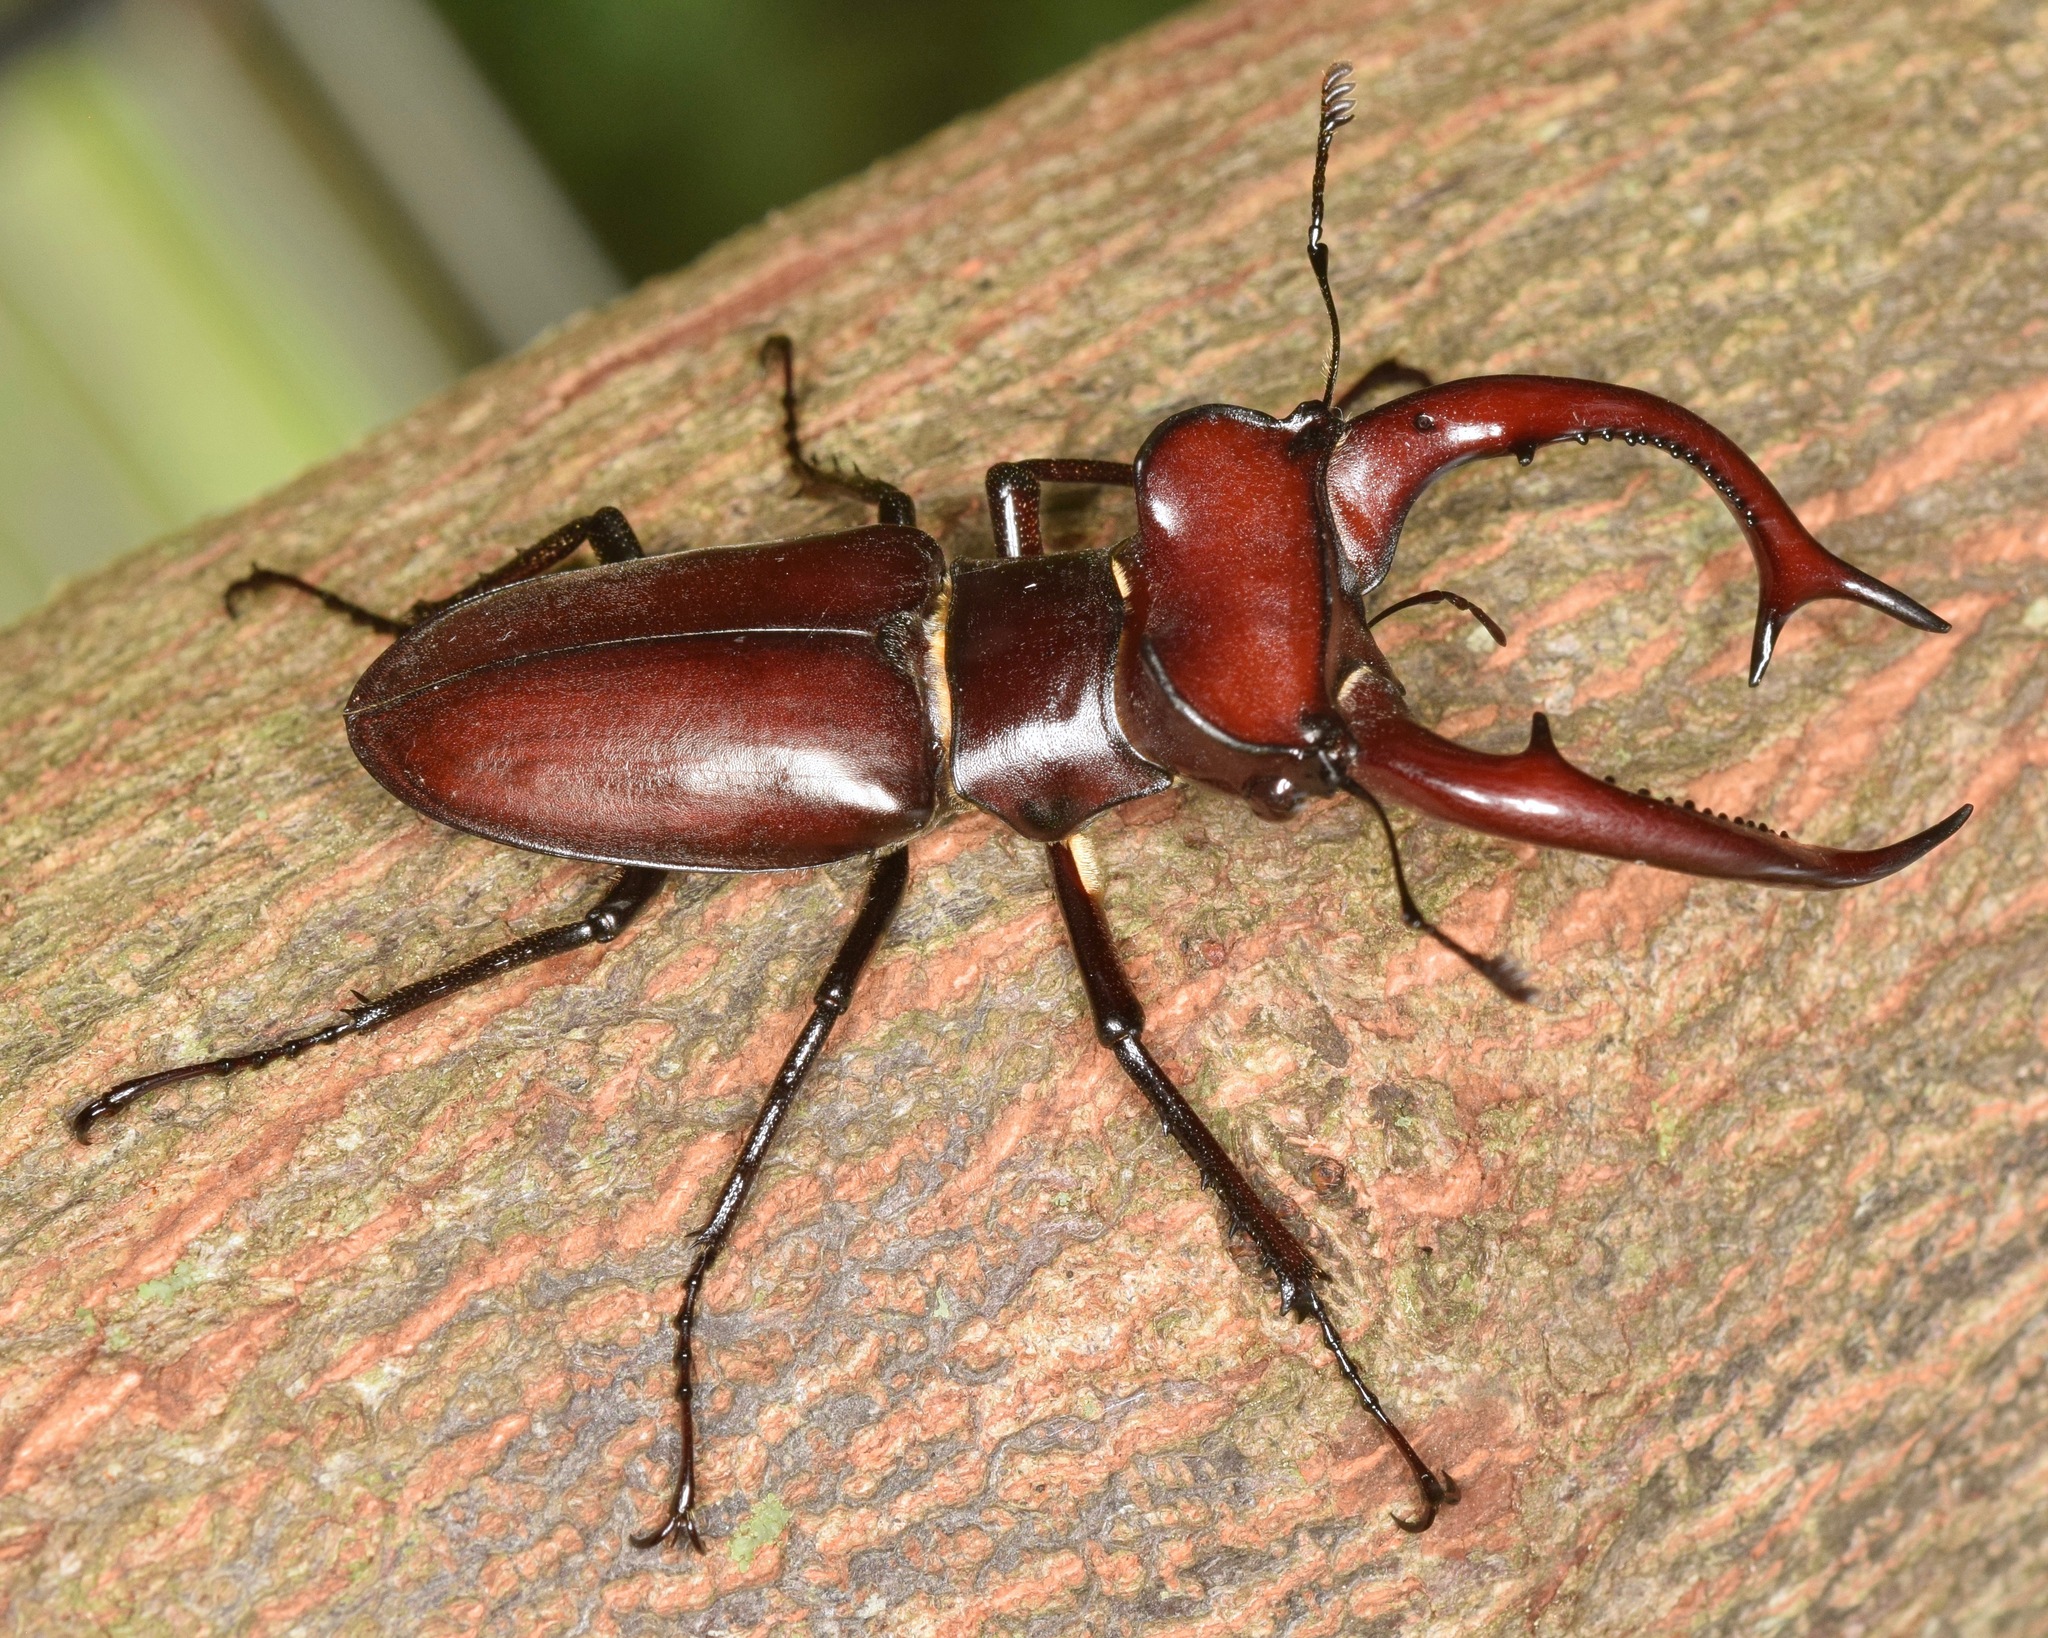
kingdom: Animalia
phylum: Arthropoda
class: Insecta
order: Coleoptera
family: Lucanidae
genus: Lucanus
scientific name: Lucanus elaphus
